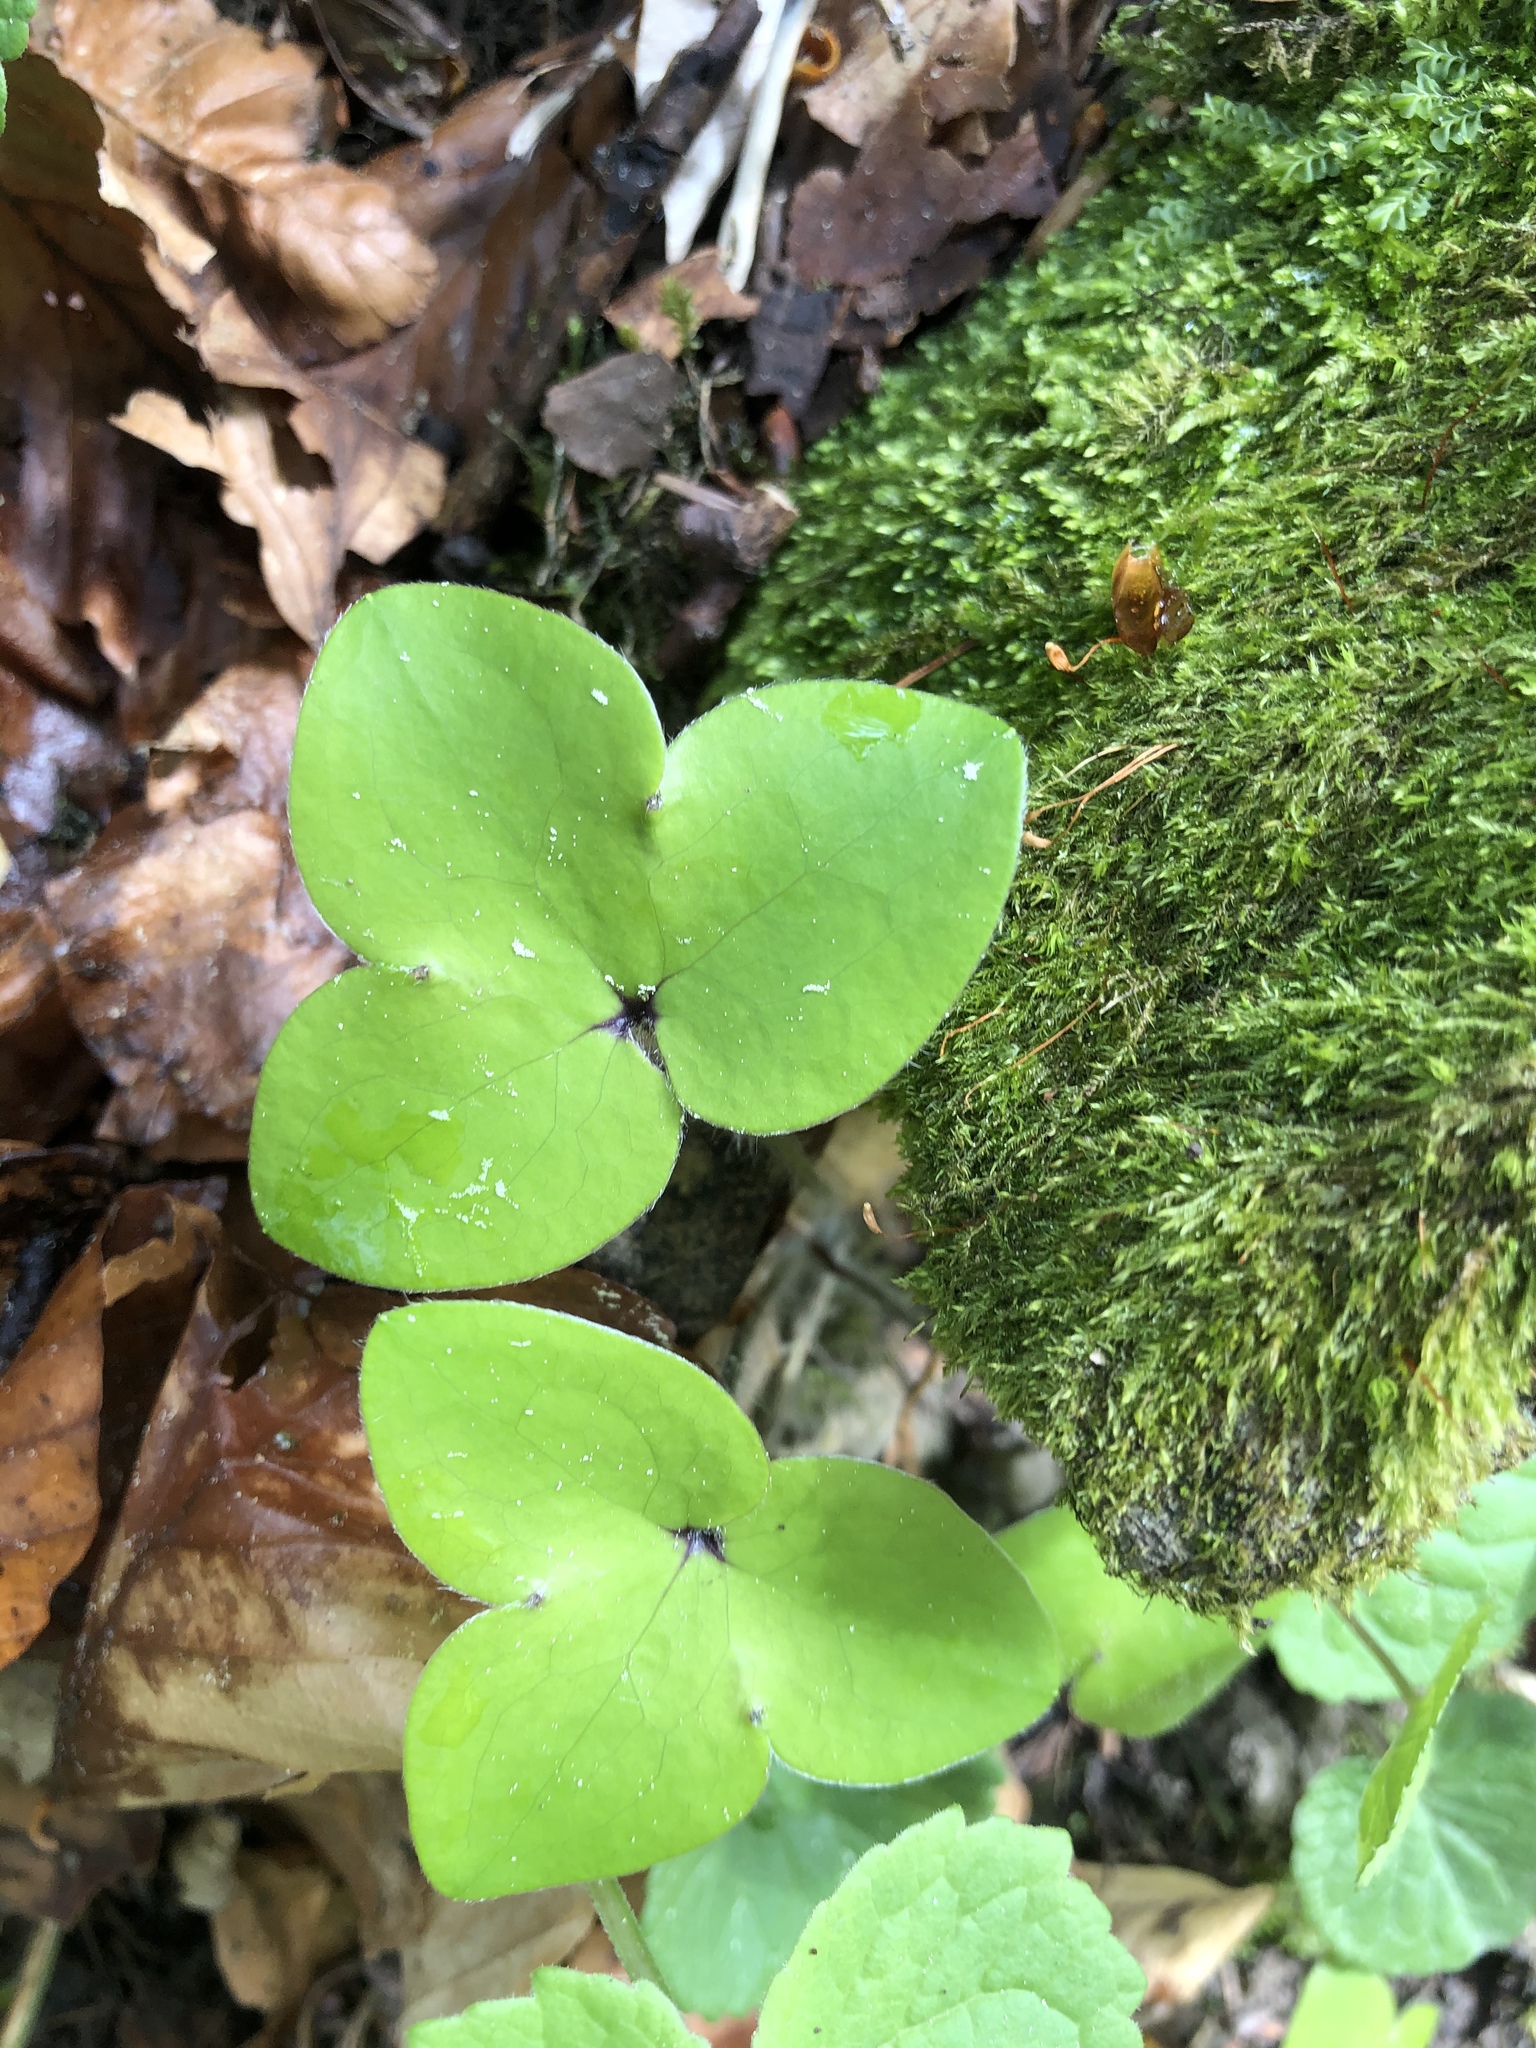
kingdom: Plantae
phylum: Tracheophyta
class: Magnoliopsida
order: Ranunculales
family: Ranunculaceae
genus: Hepatica
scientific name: Hepatica nobilis
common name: Liverleaf
